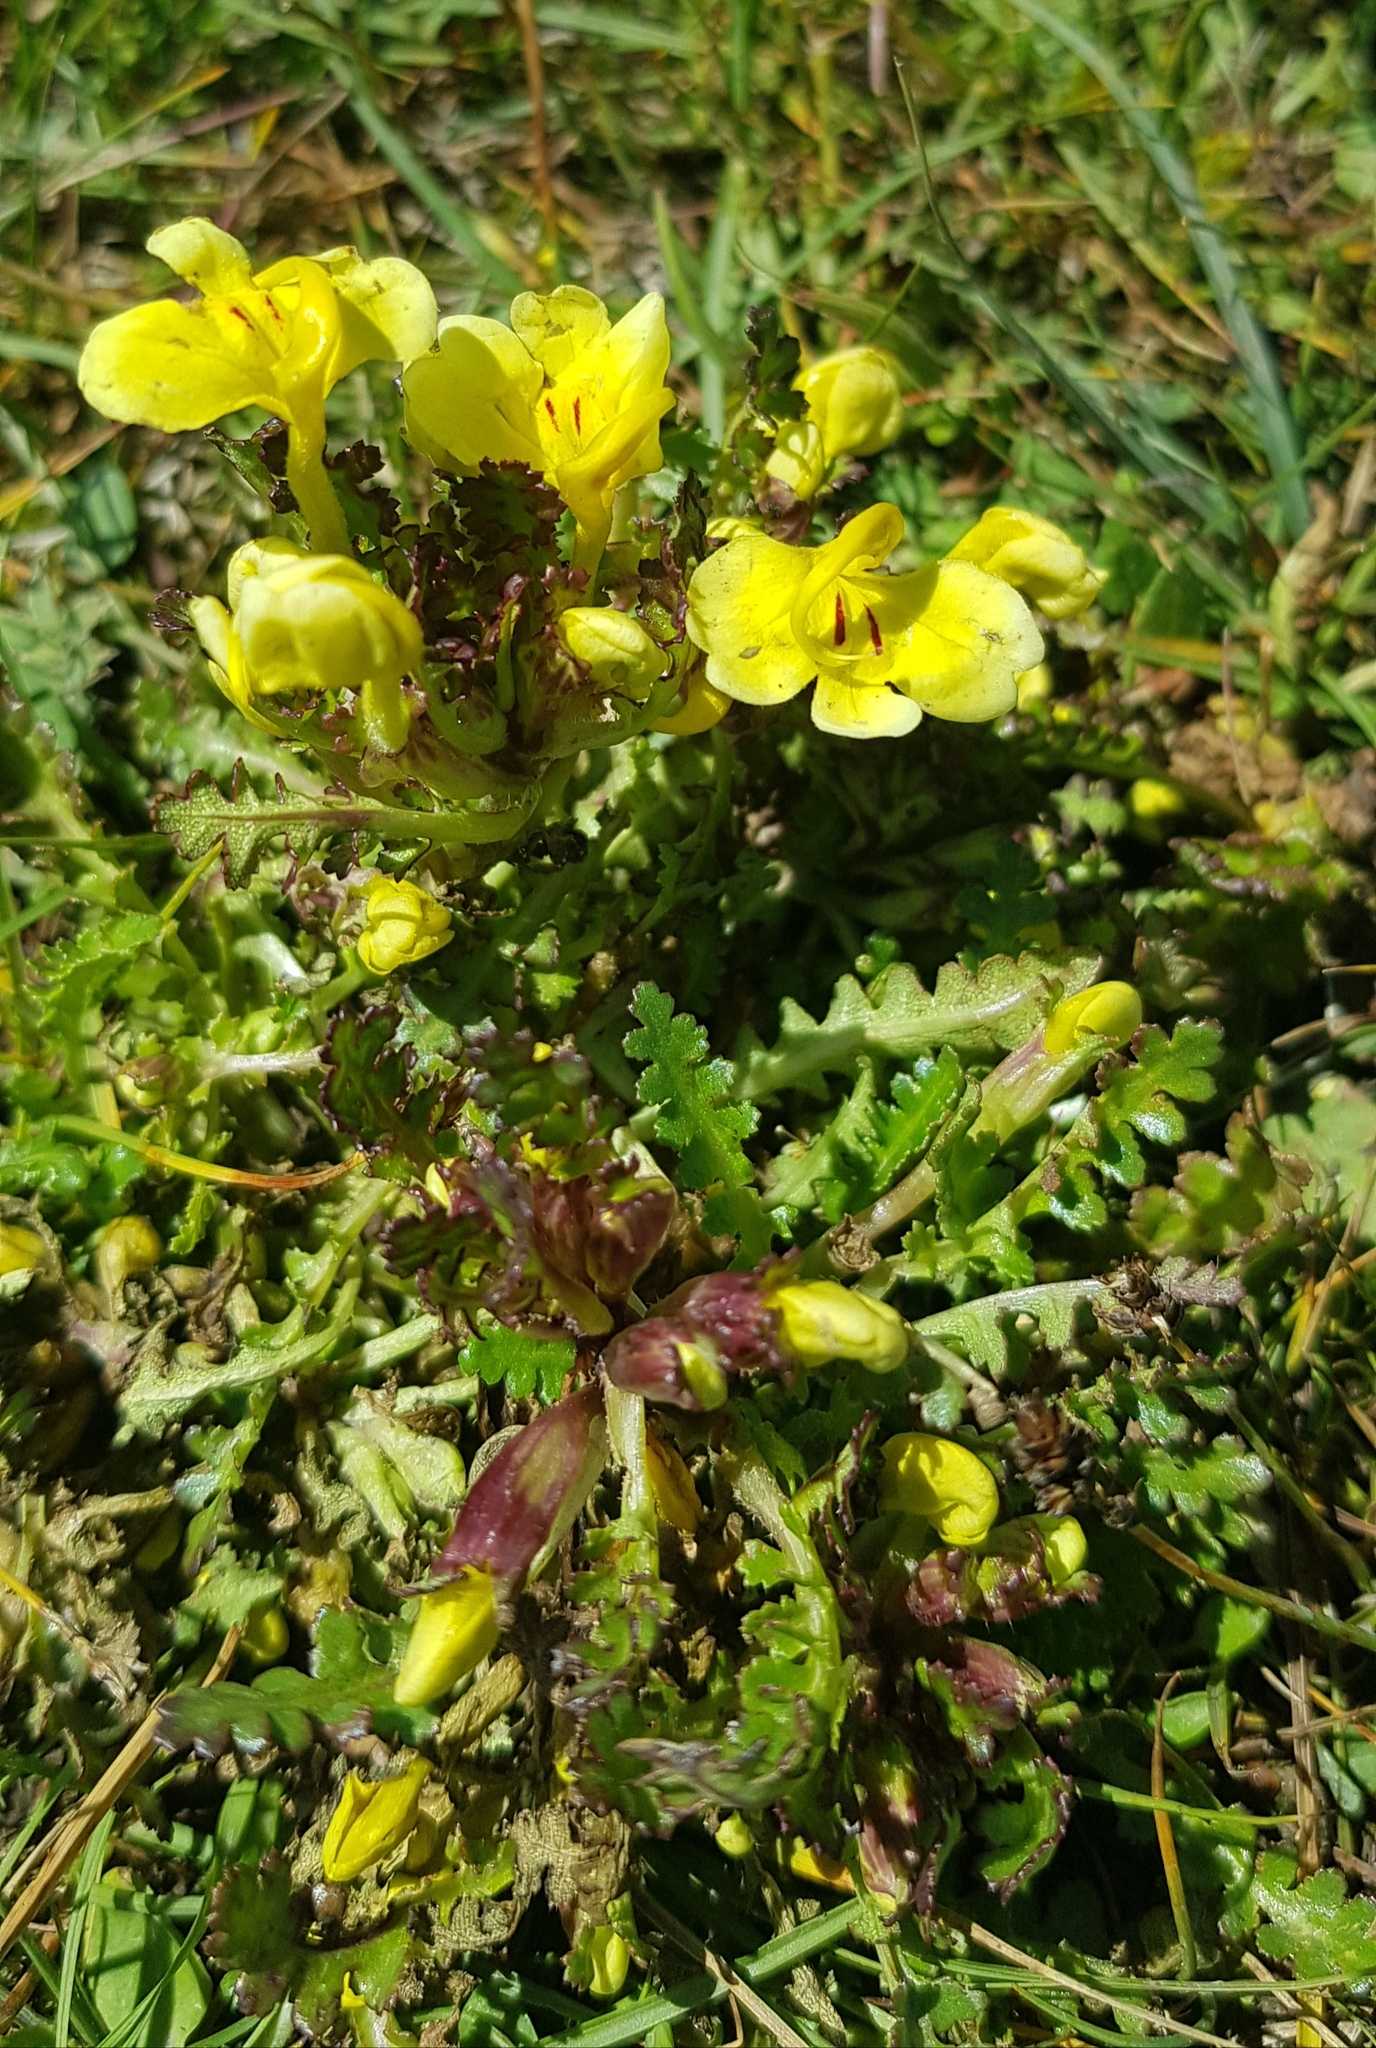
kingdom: Plantae
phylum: Tracheophyta
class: Magnoliopsida
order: Lamiales
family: Orobanchaceae
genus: Pedicularis
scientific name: Pedicularis longiflora
